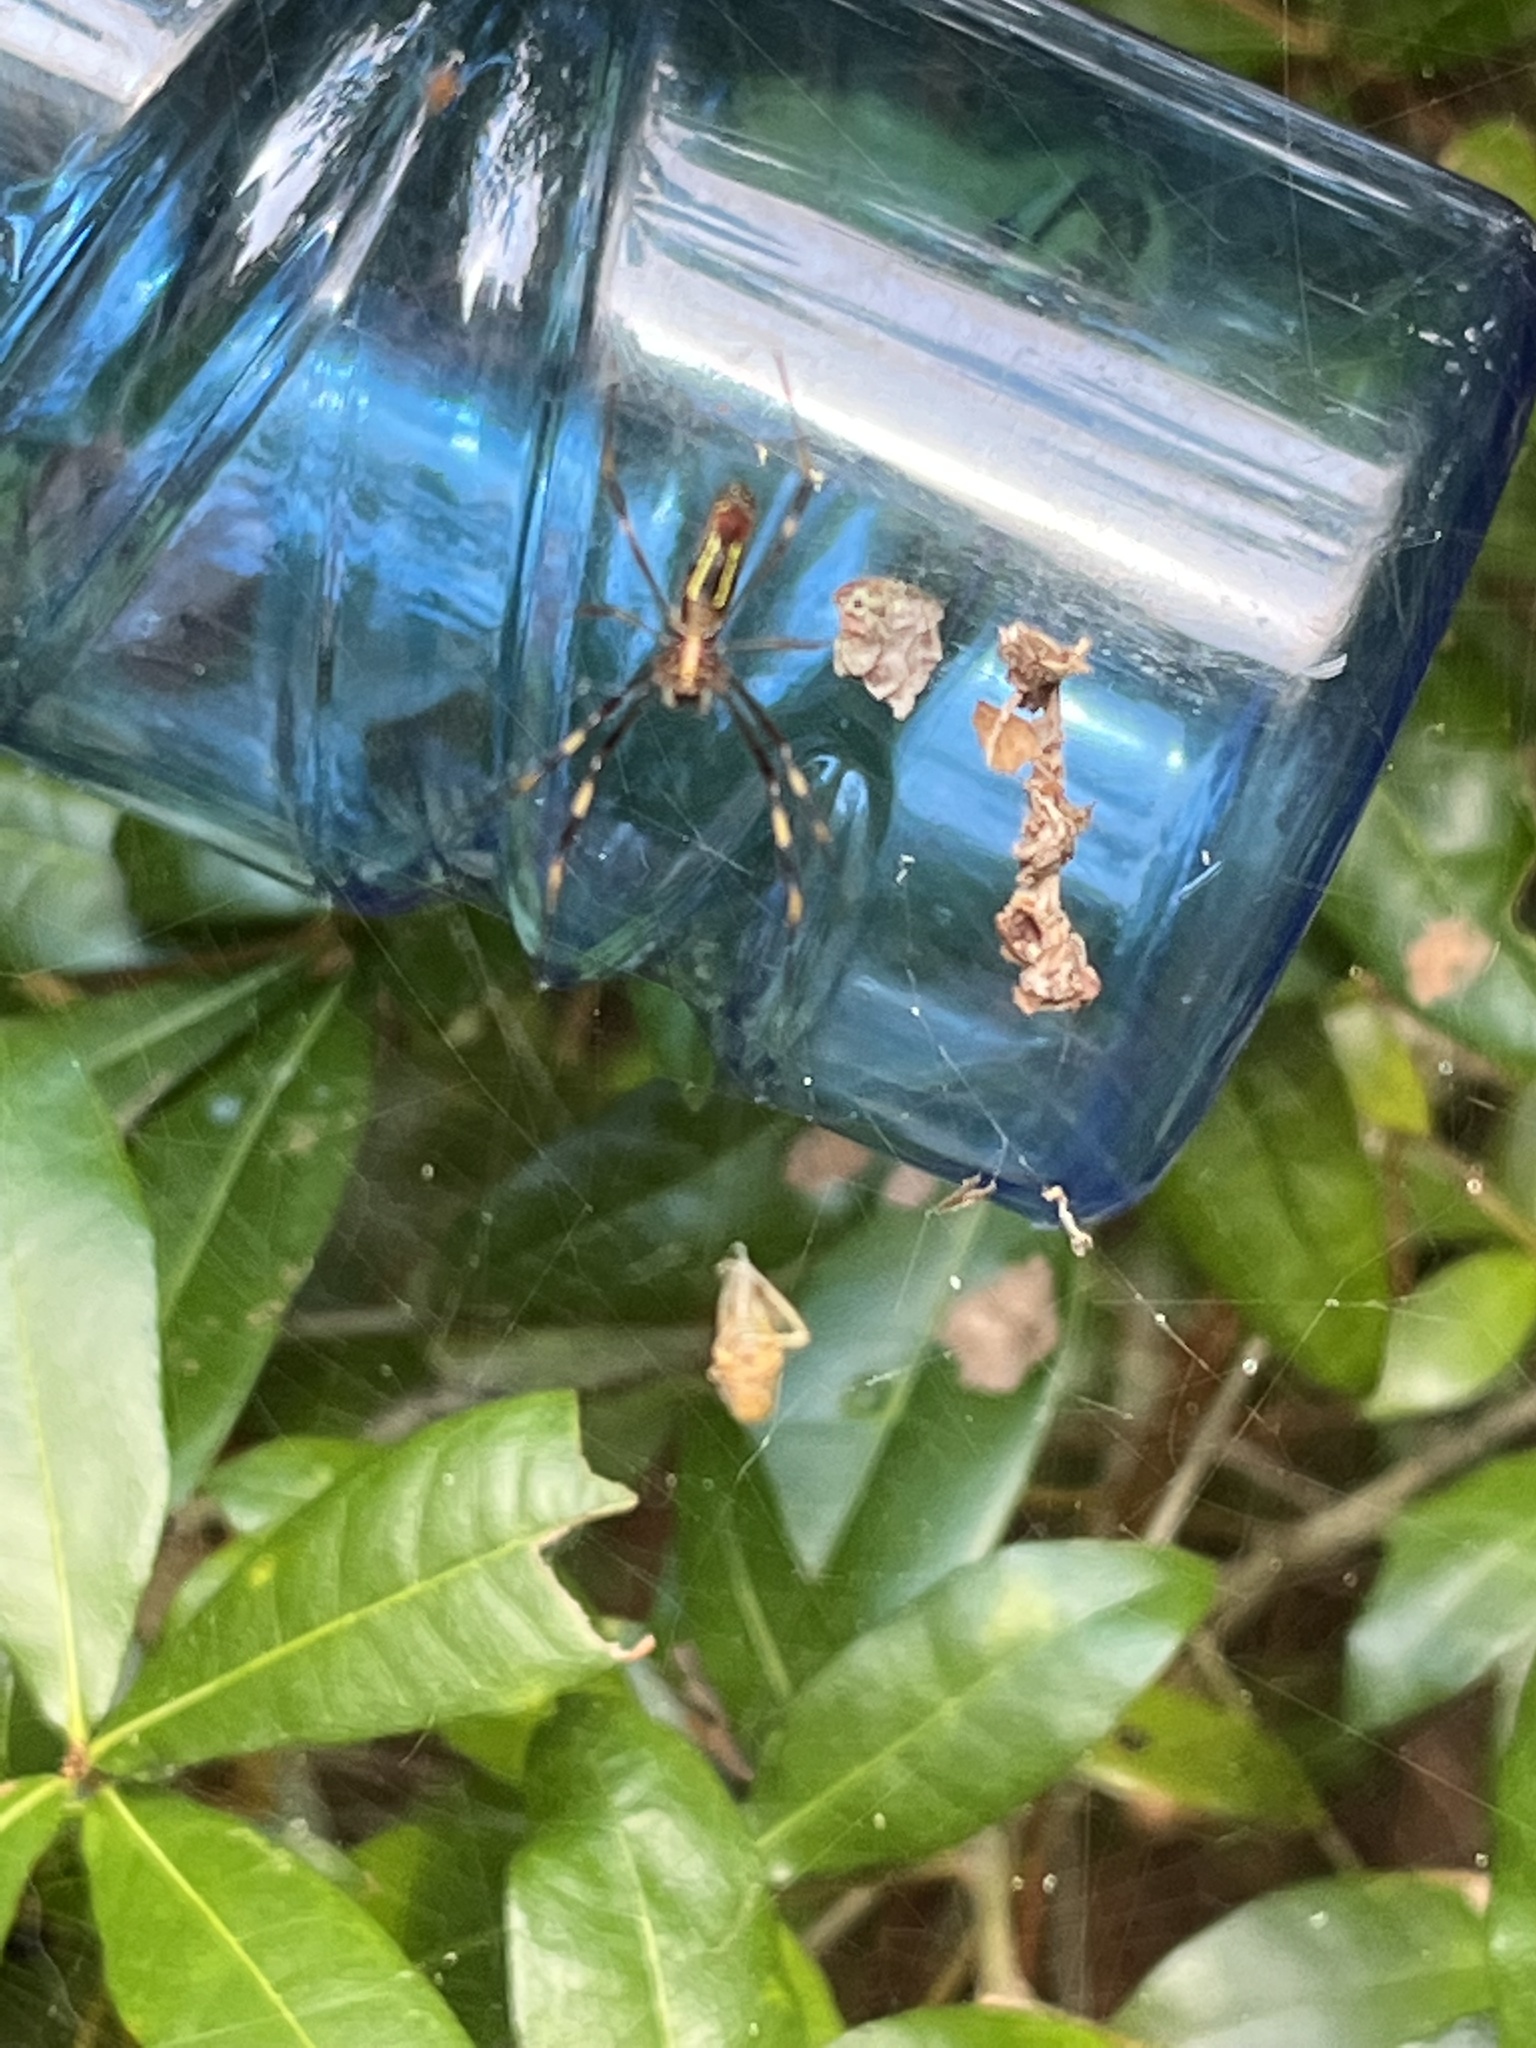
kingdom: Animalia
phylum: Arthropoda
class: Arachnida
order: Araneae
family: Araneidae
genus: Trichonephila
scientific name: Trichonephila clavipes
